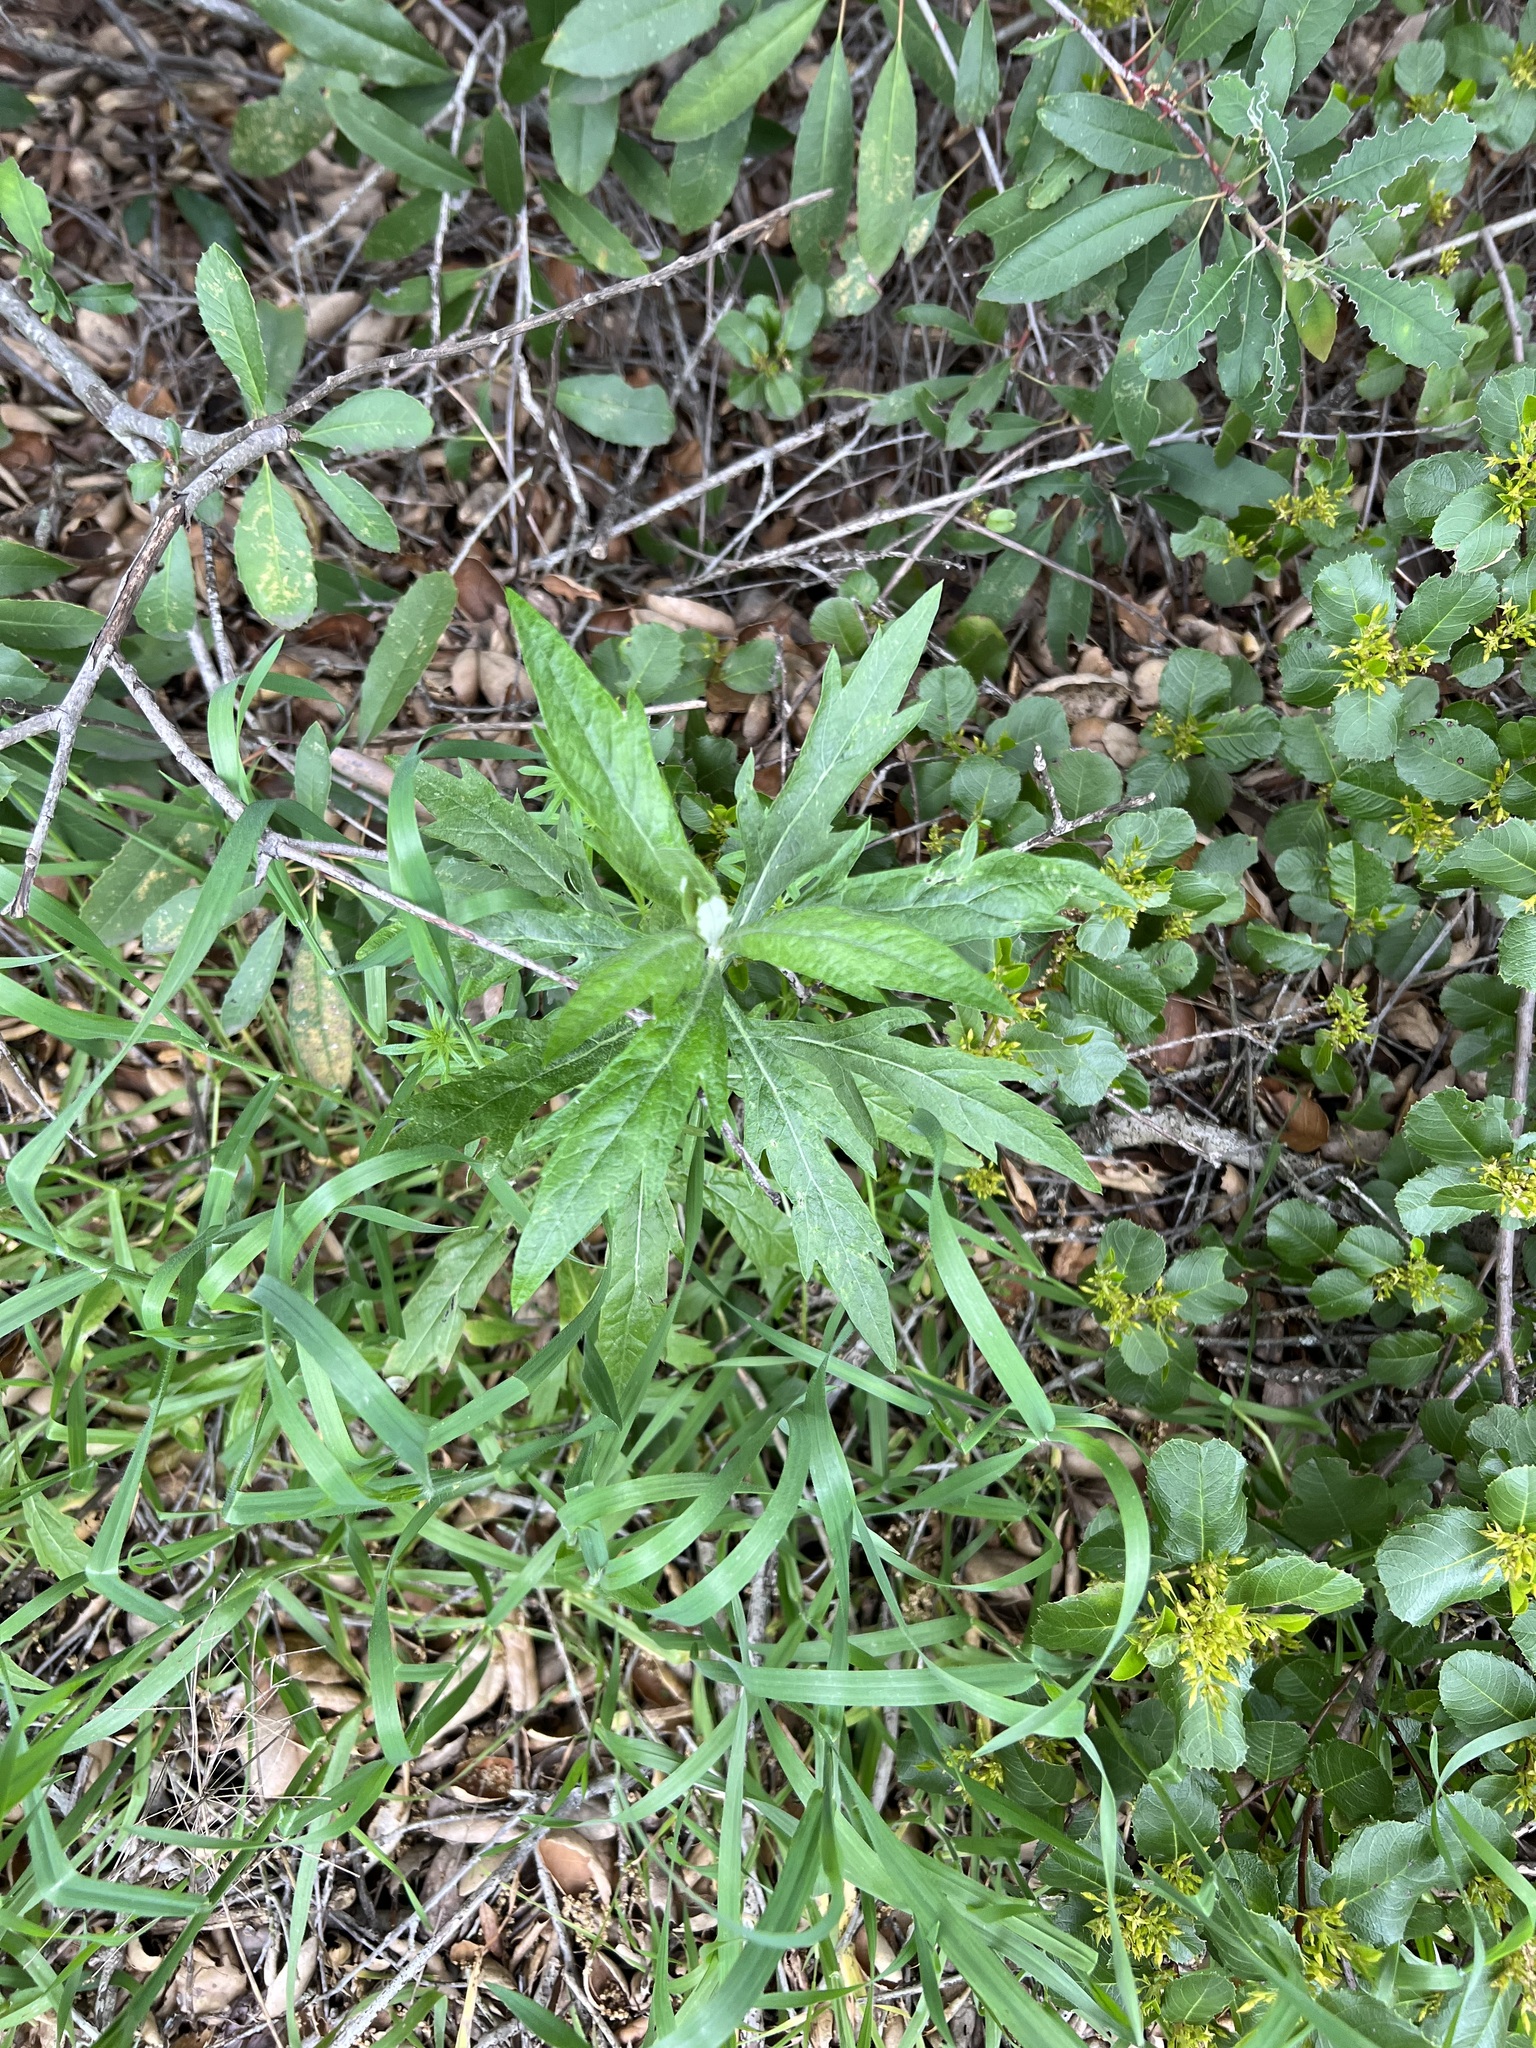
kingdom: Plantae
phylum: Tracheophyta
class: Magnoliopsida
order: Asterales
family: Asteraceae
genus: Artemisia
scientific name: Artemisia douglasiana
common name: Northwest mugwort
